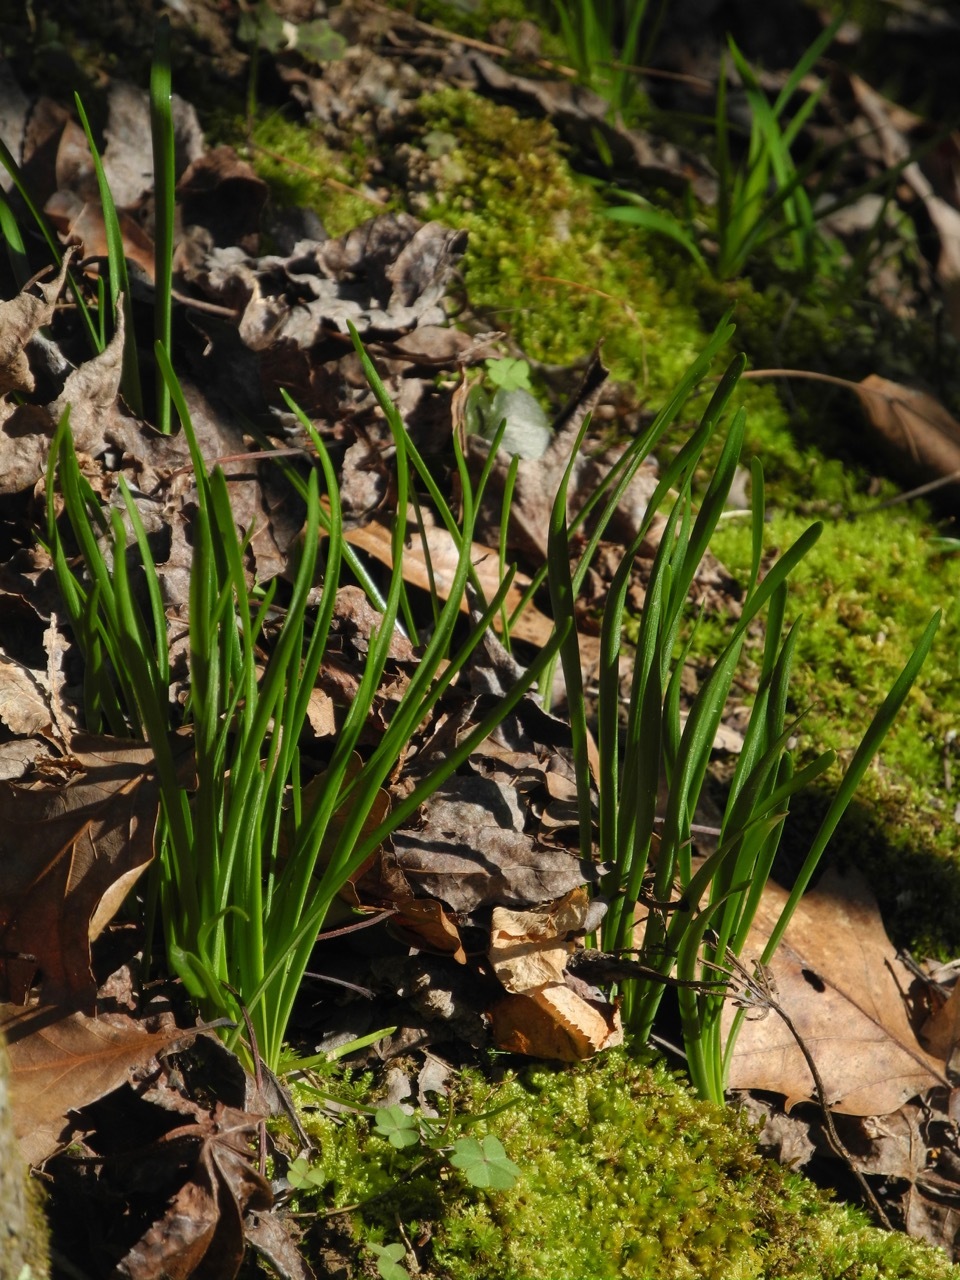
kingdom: Plantae
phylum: Tracheophyta
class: Liliopsida
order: Asparagales
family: Amaryllidaceae
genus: Zephyranthes
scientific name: Zephyranthes atamasco
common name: Atamasco lily
